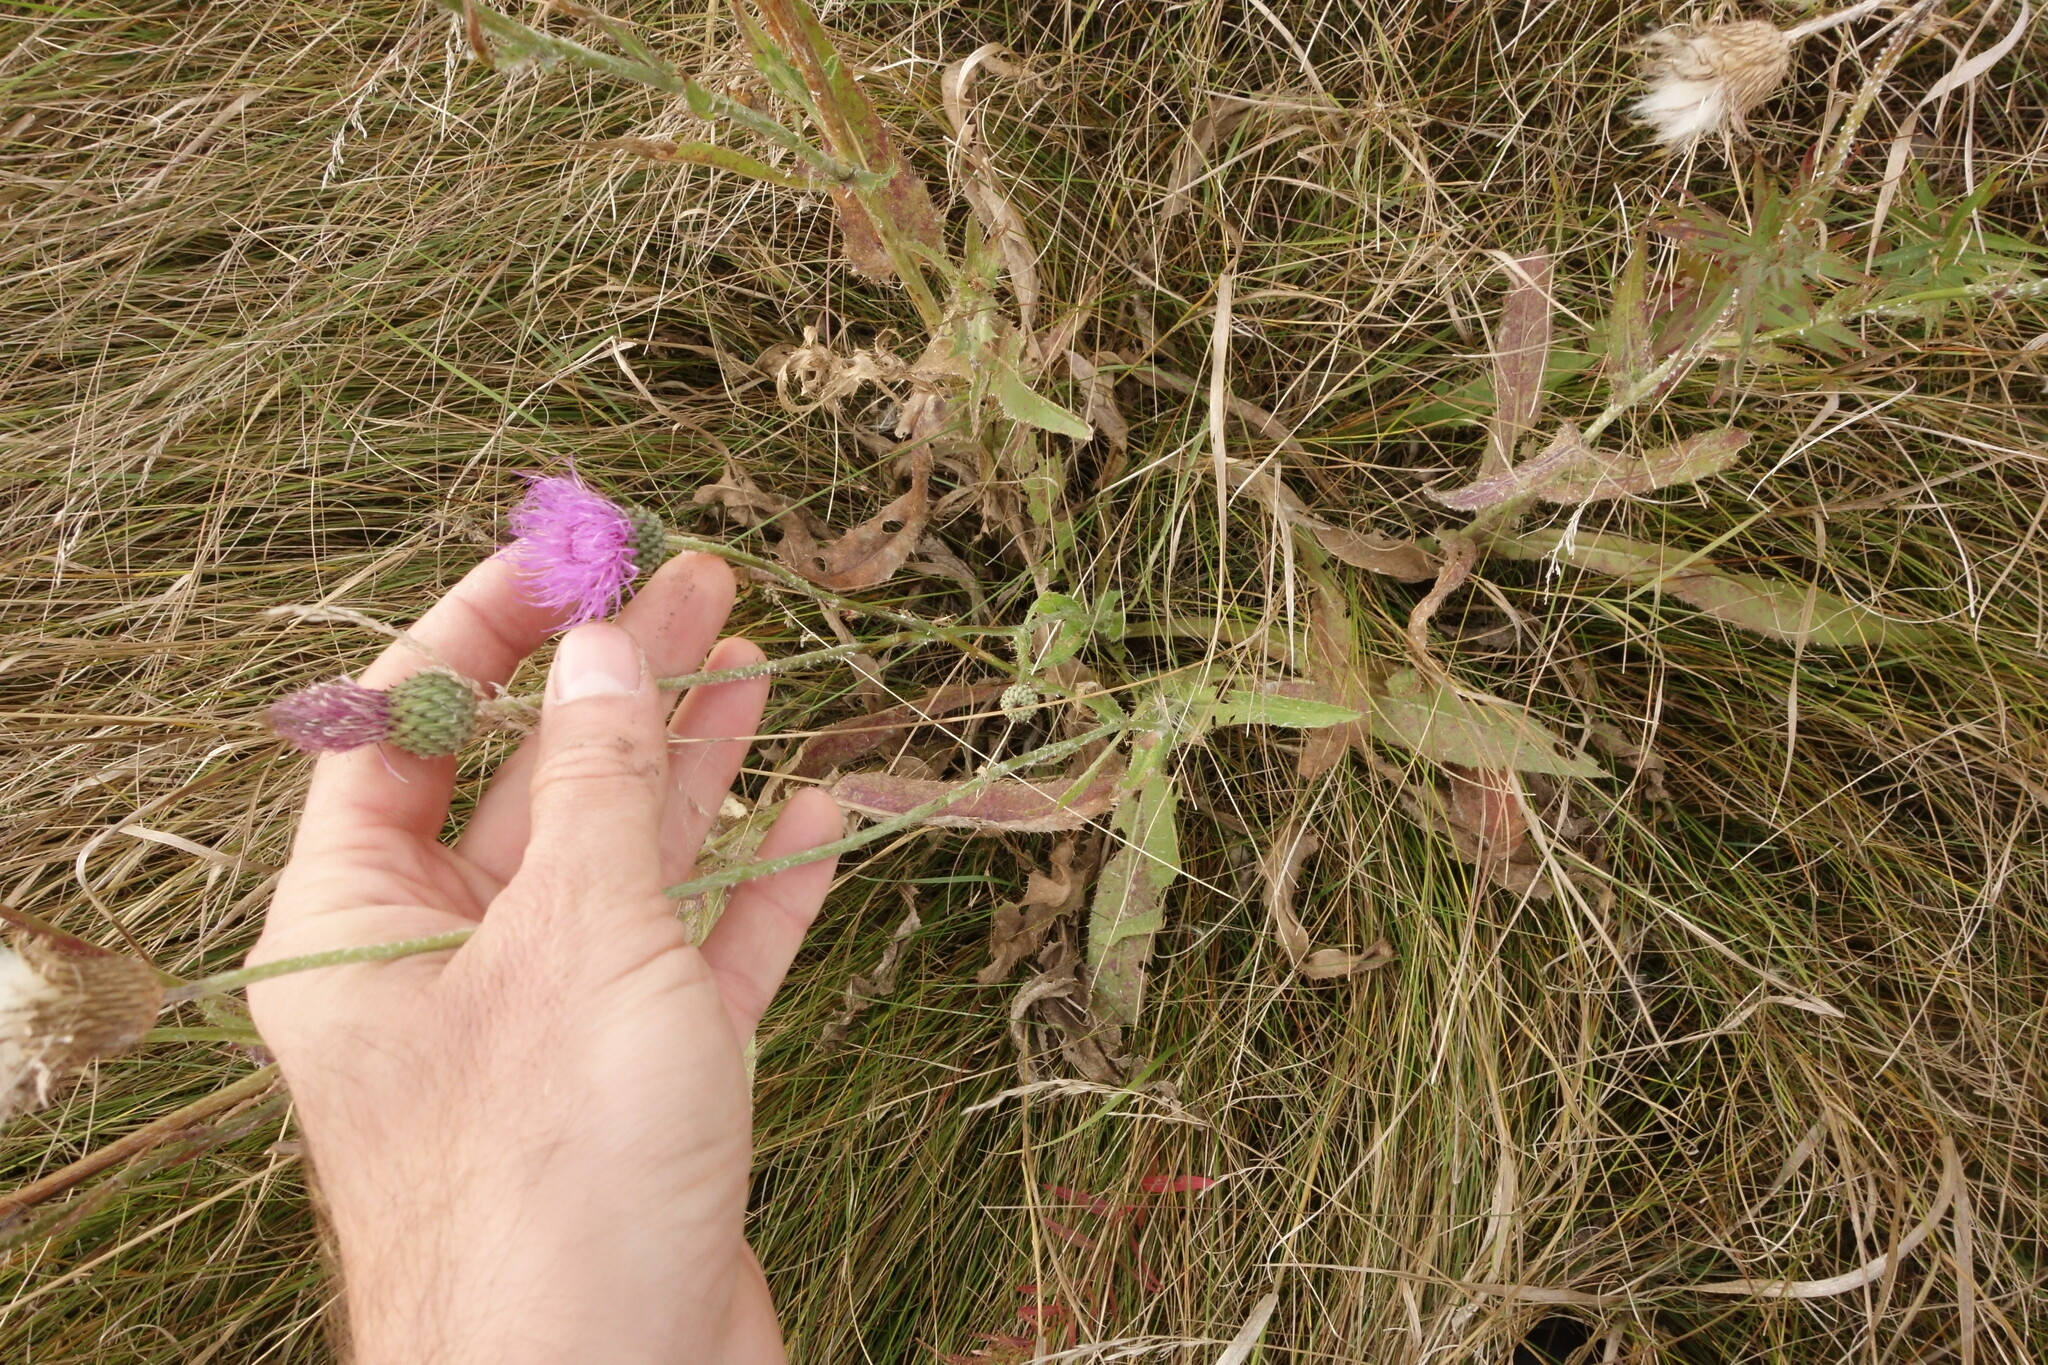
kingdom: Plantae
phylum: Tracheophyta
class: Magnoliopsida
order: Asterales
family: Asteraceae
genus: Cirsium
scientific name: Cirsium canum
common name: Queen anne's thistle
